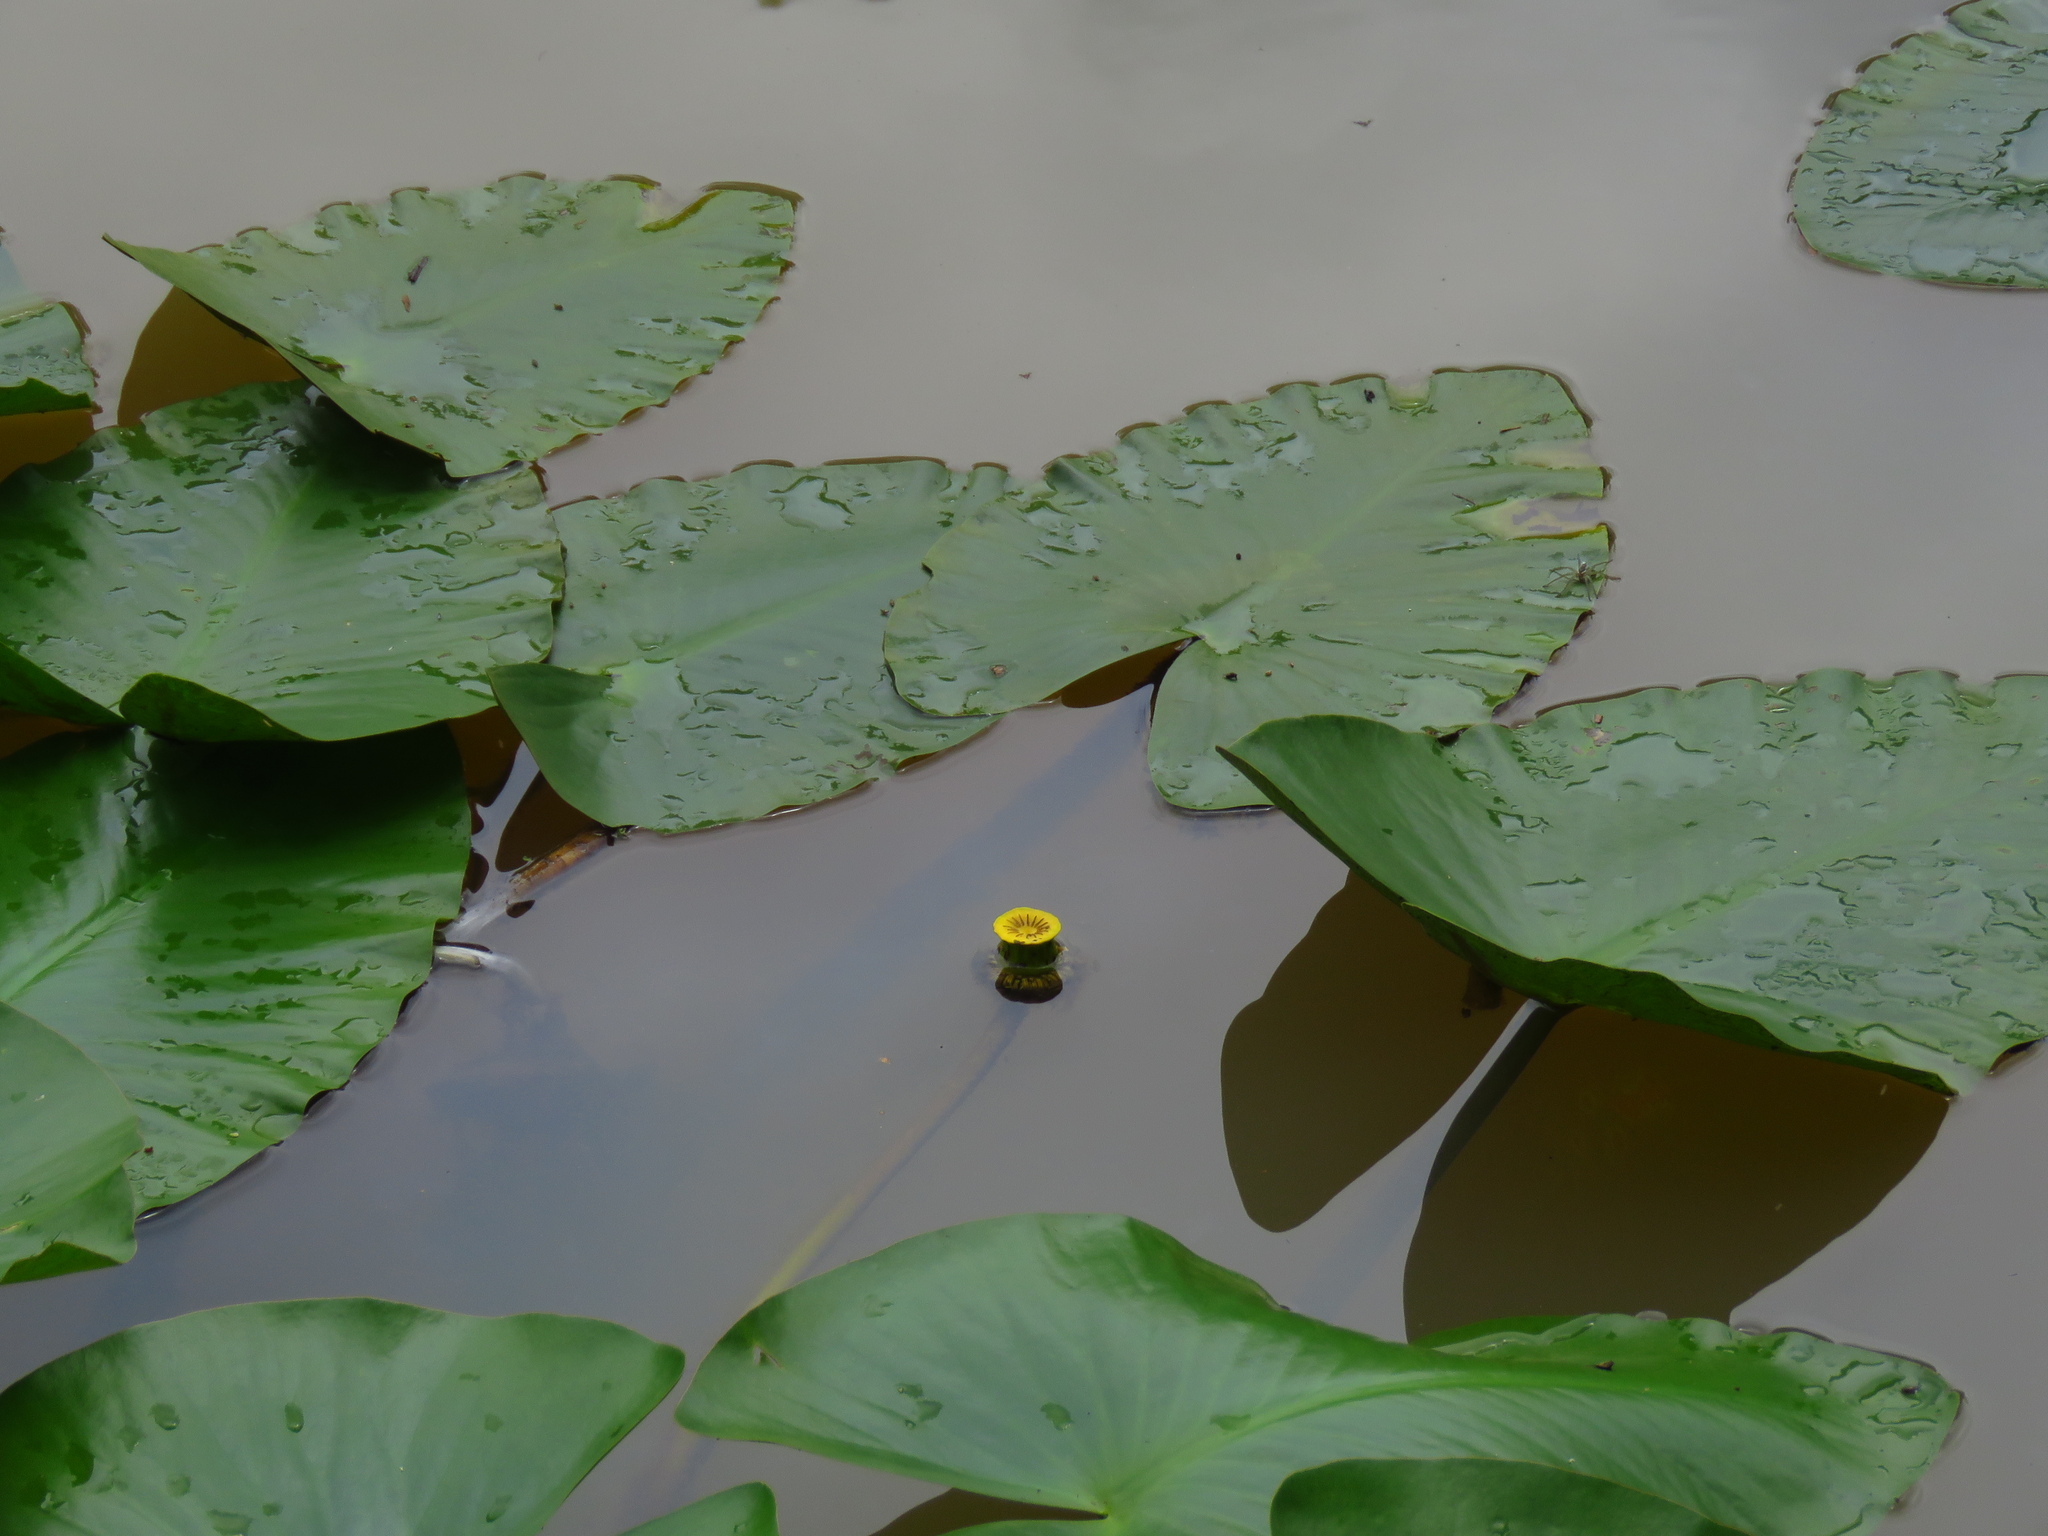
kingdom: Plantae
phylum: Tracheophyta
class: Magnoliopsida
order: Nymphaeales
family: Nymphaeaceae
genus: Nuphar
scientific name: Nuphar advena
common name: Spatter-dock
